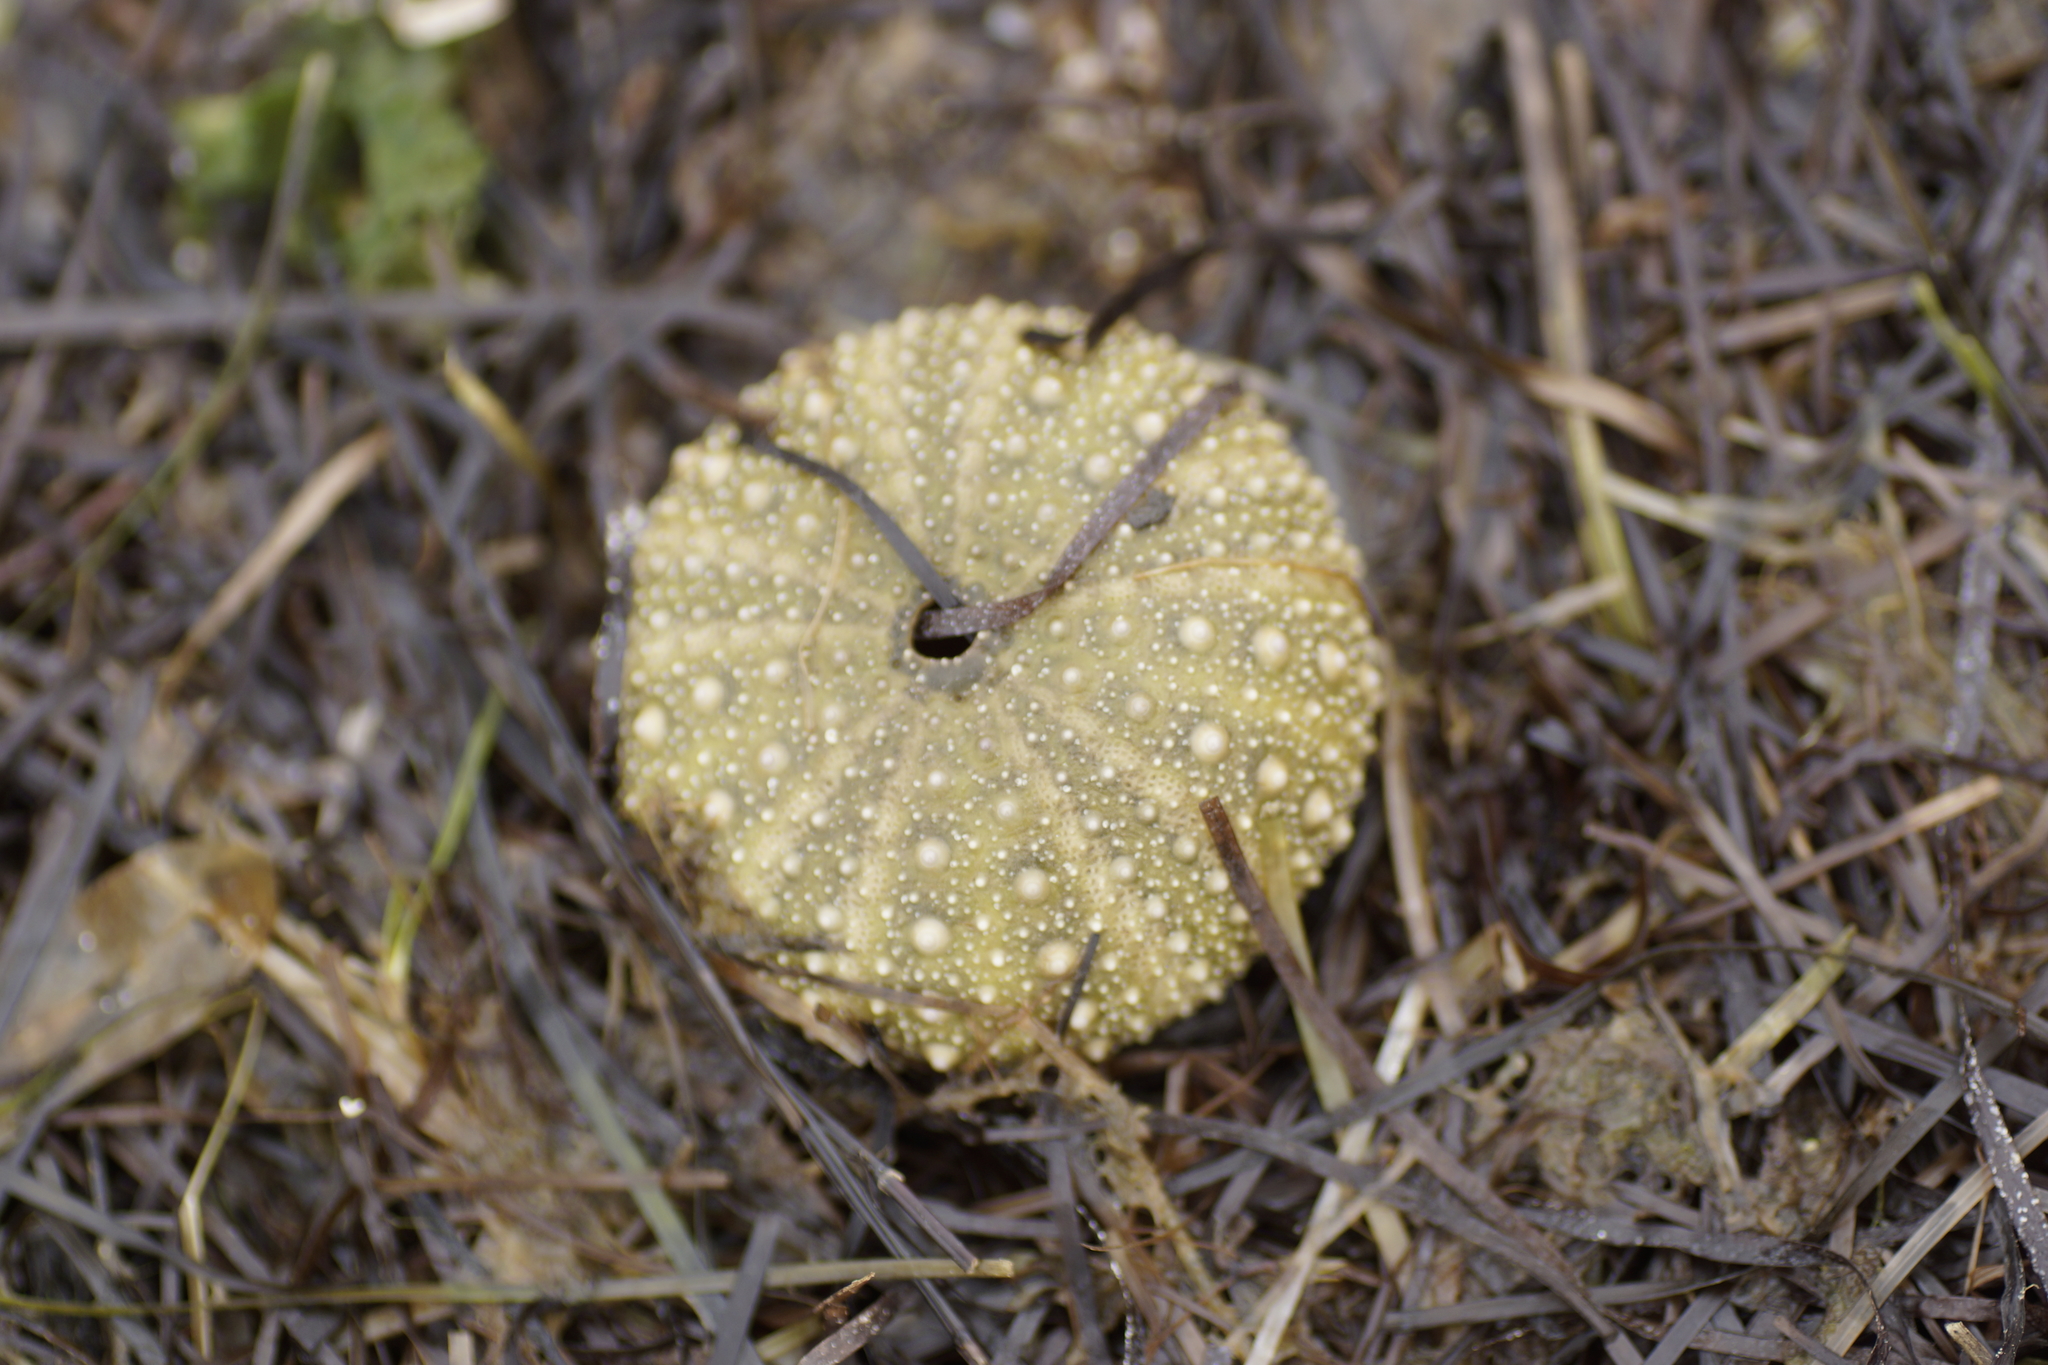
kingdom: Animalia
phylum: Echinodermata
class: Echinoidea
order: Camarodonta
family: Echinometridae
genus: Heliocidaris
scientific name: Heliocidaris erythrogramma
